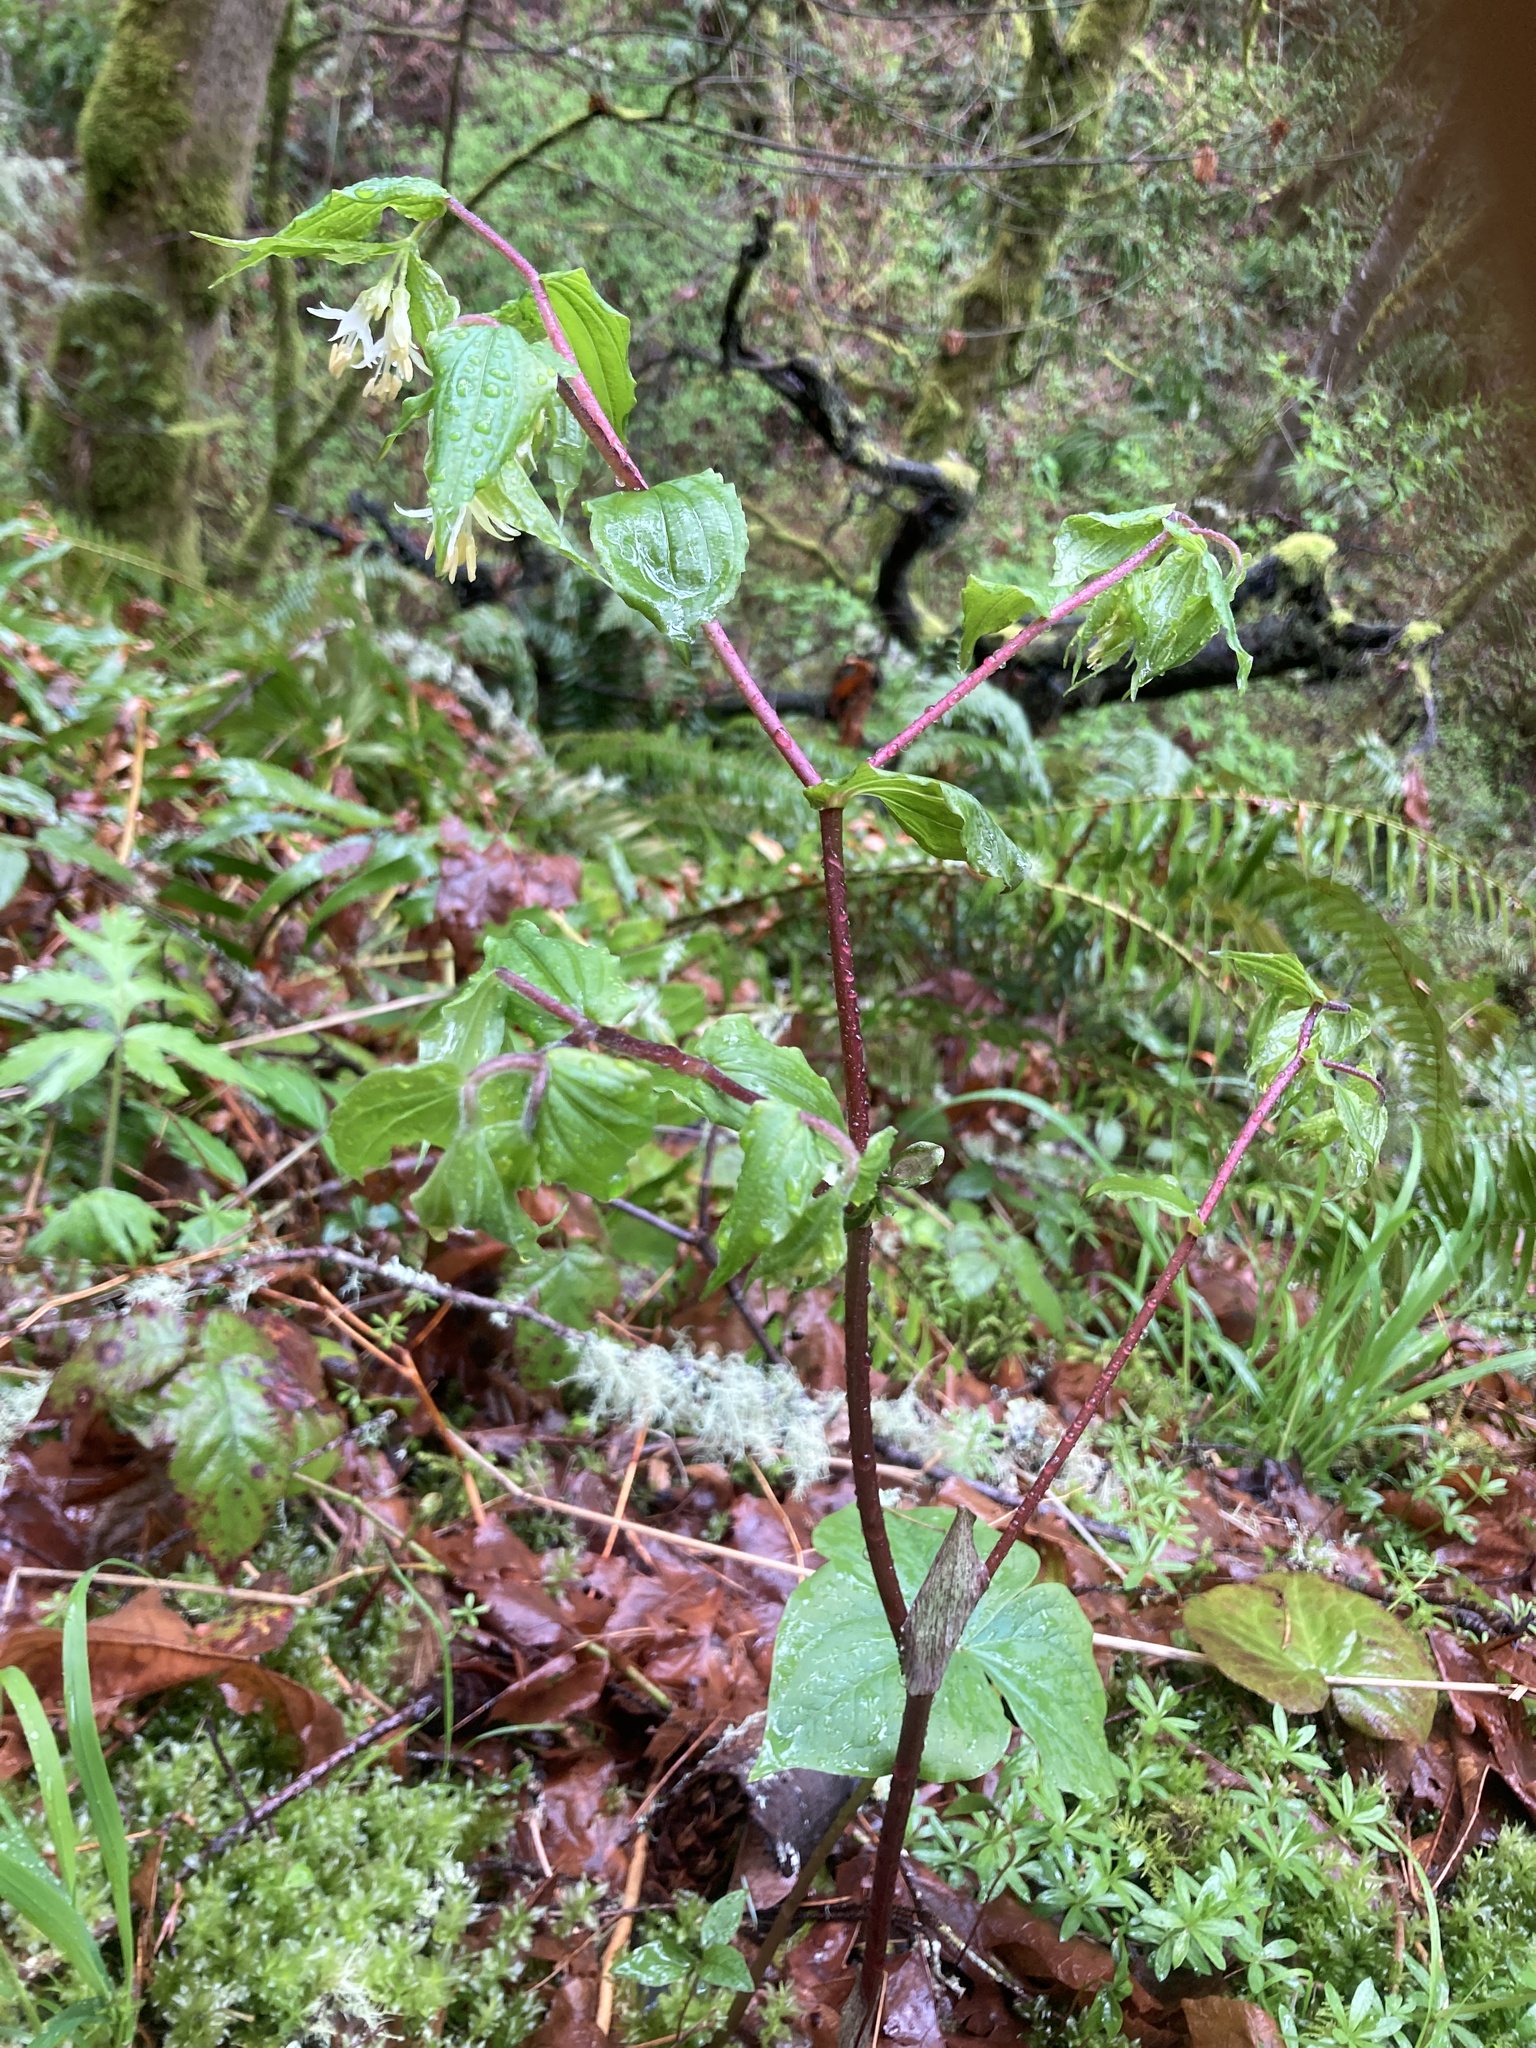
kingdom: Plantae
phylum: Tracheophyta
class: Liliopsida
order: Liliales
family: Liliaceae
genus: Prosartes
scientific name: Prosartes hookeri
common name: Fairy-bells
